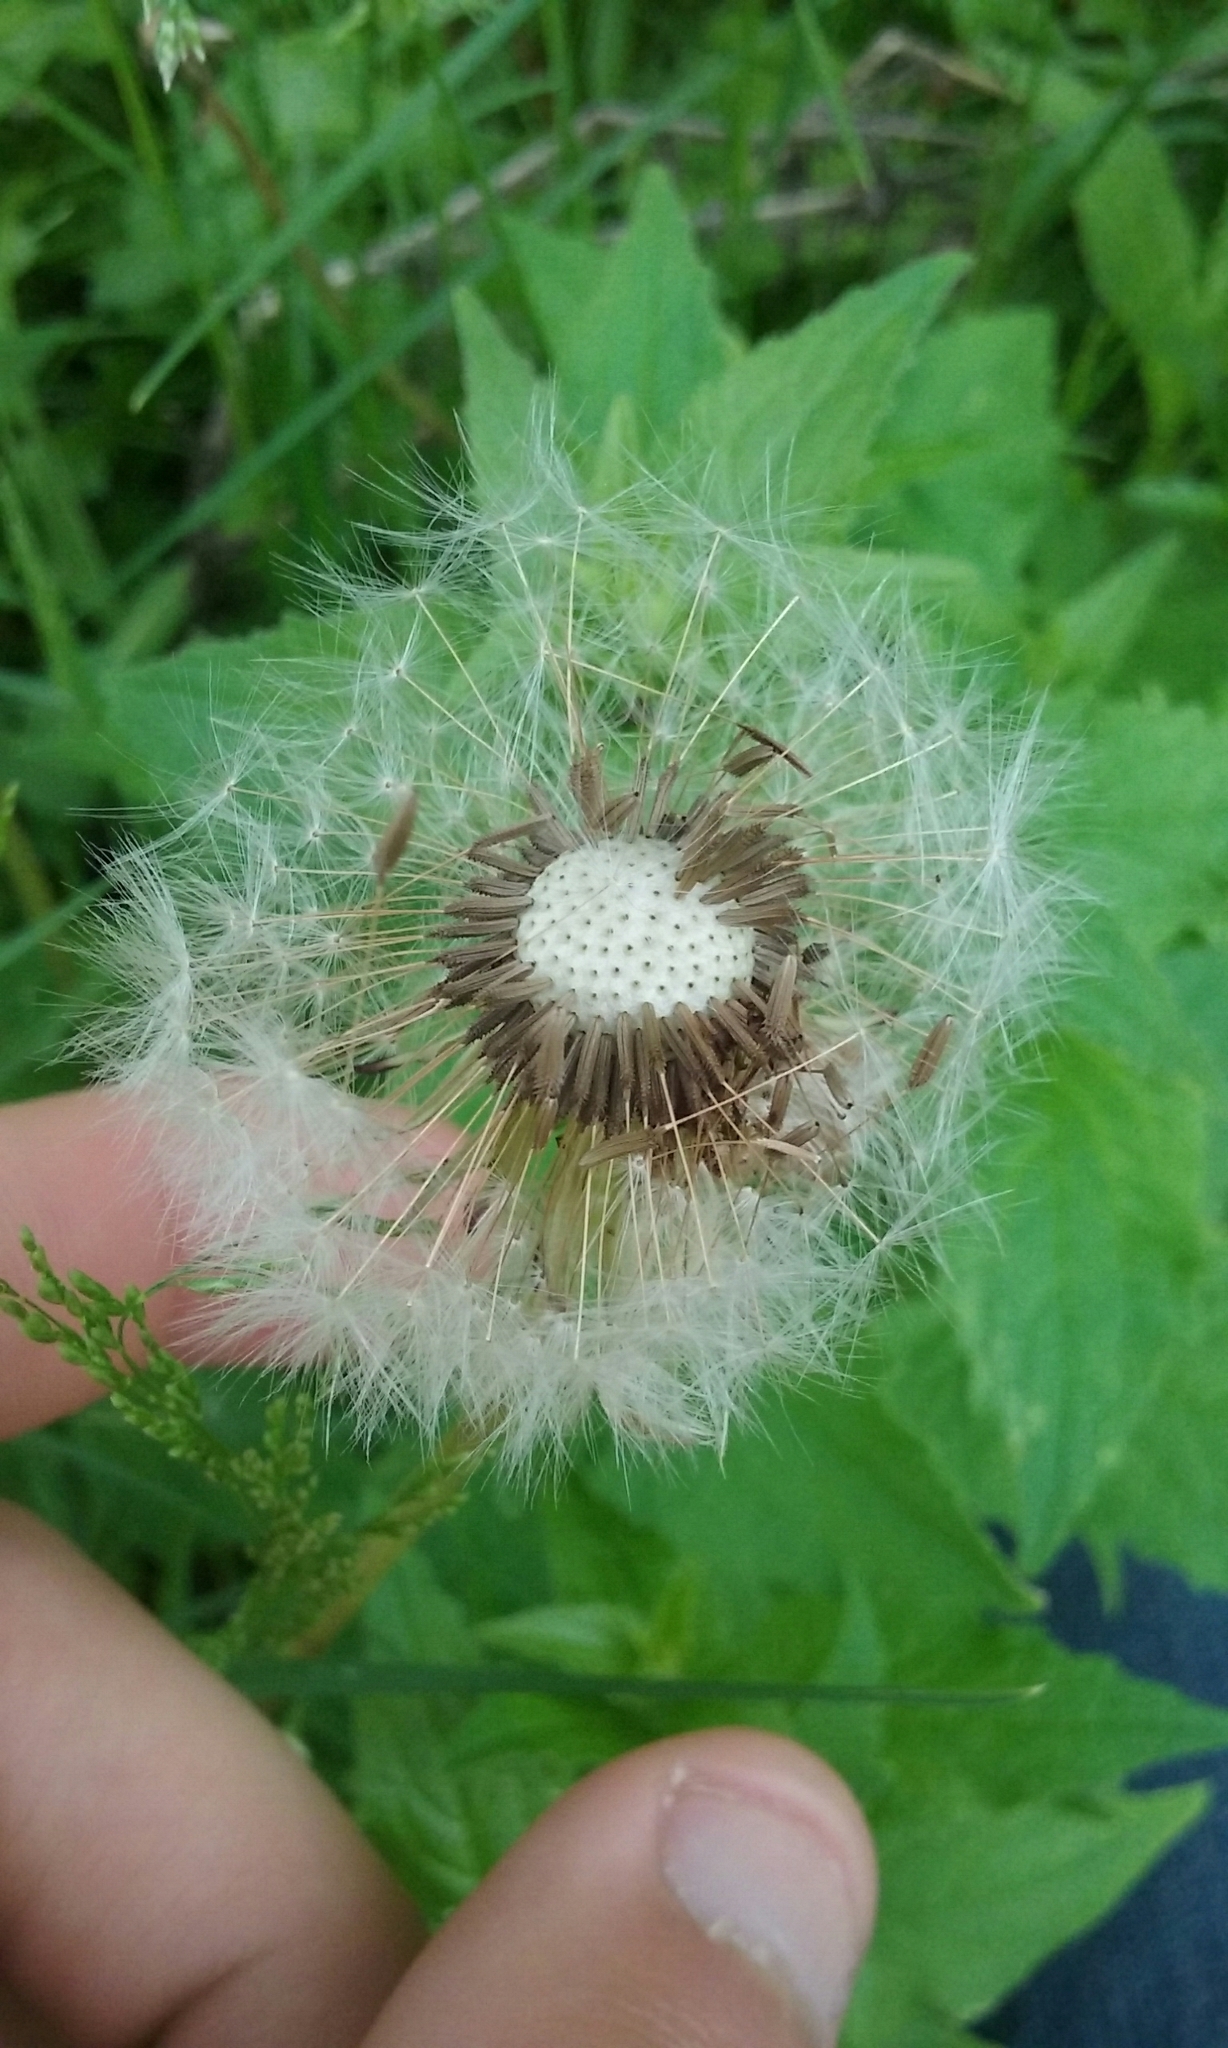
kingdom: Plantae
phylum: Tracheophyta
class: Magnoliopsida
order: Asterales
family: Asteraceae
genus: Taraxacum
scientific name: Taraxacum officinale
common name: Common dandelion
